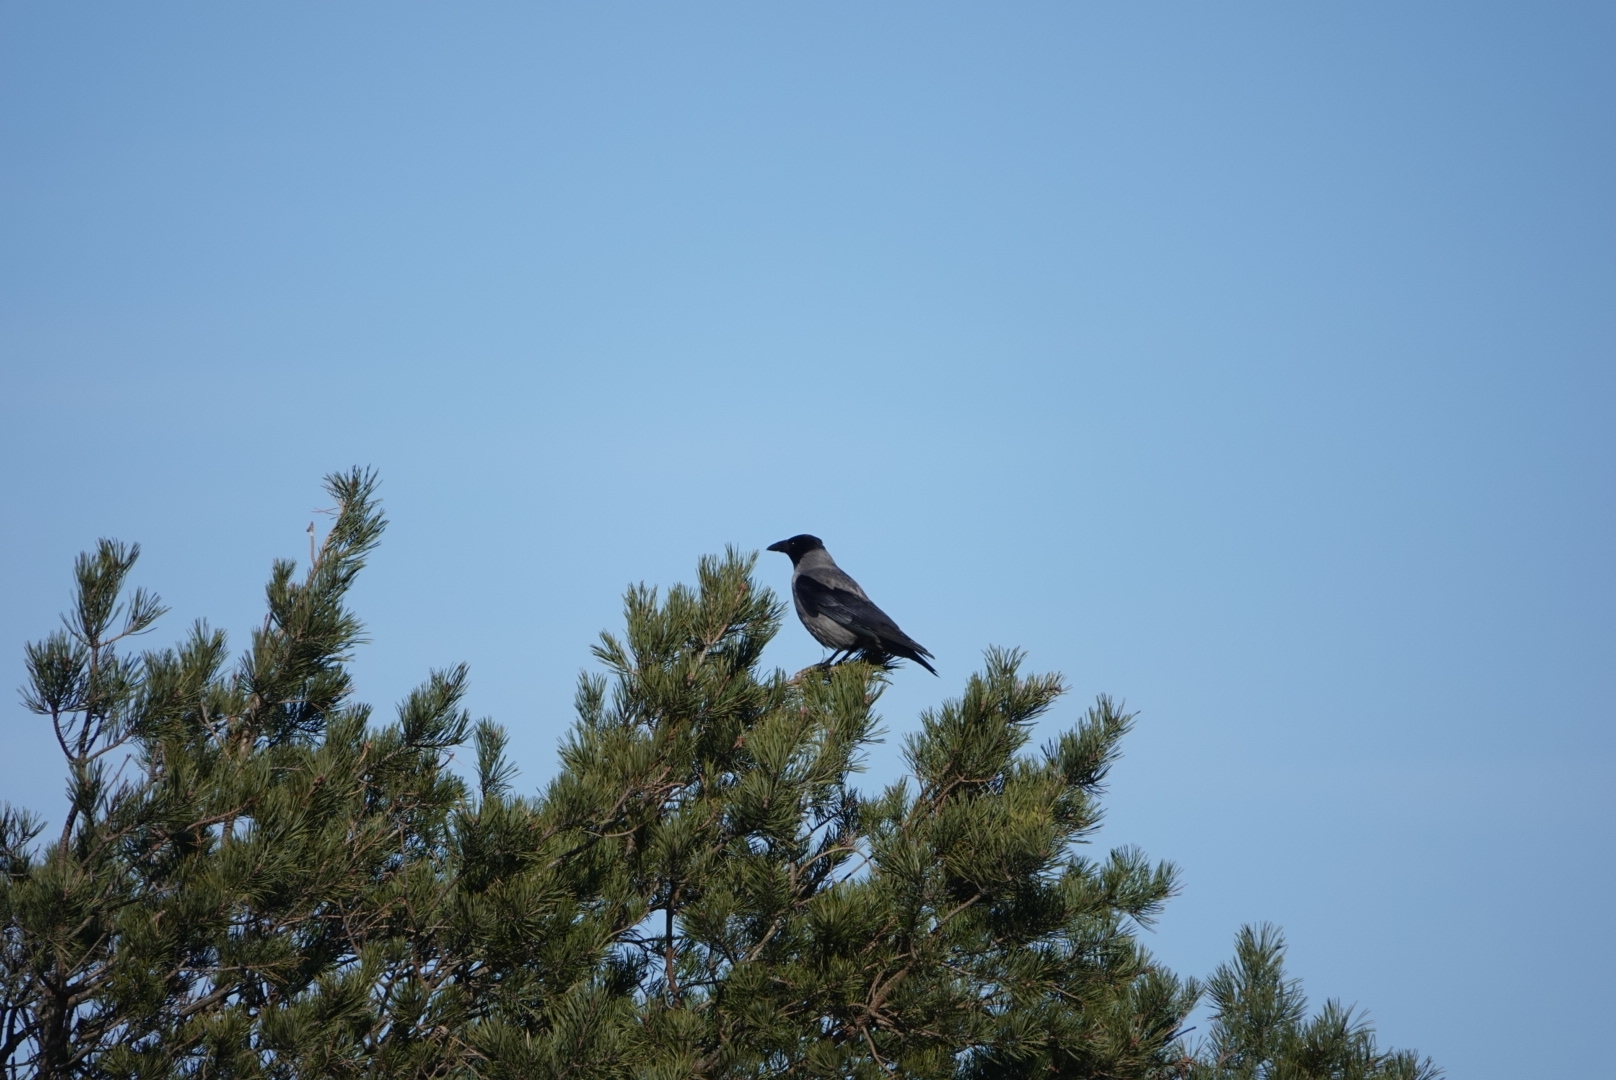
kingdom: Animalia
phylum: Chordata
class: Aves
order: Passeriformes
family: Corvidae
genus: Corvus
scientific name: Corvus cornix
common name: Hooded crow
